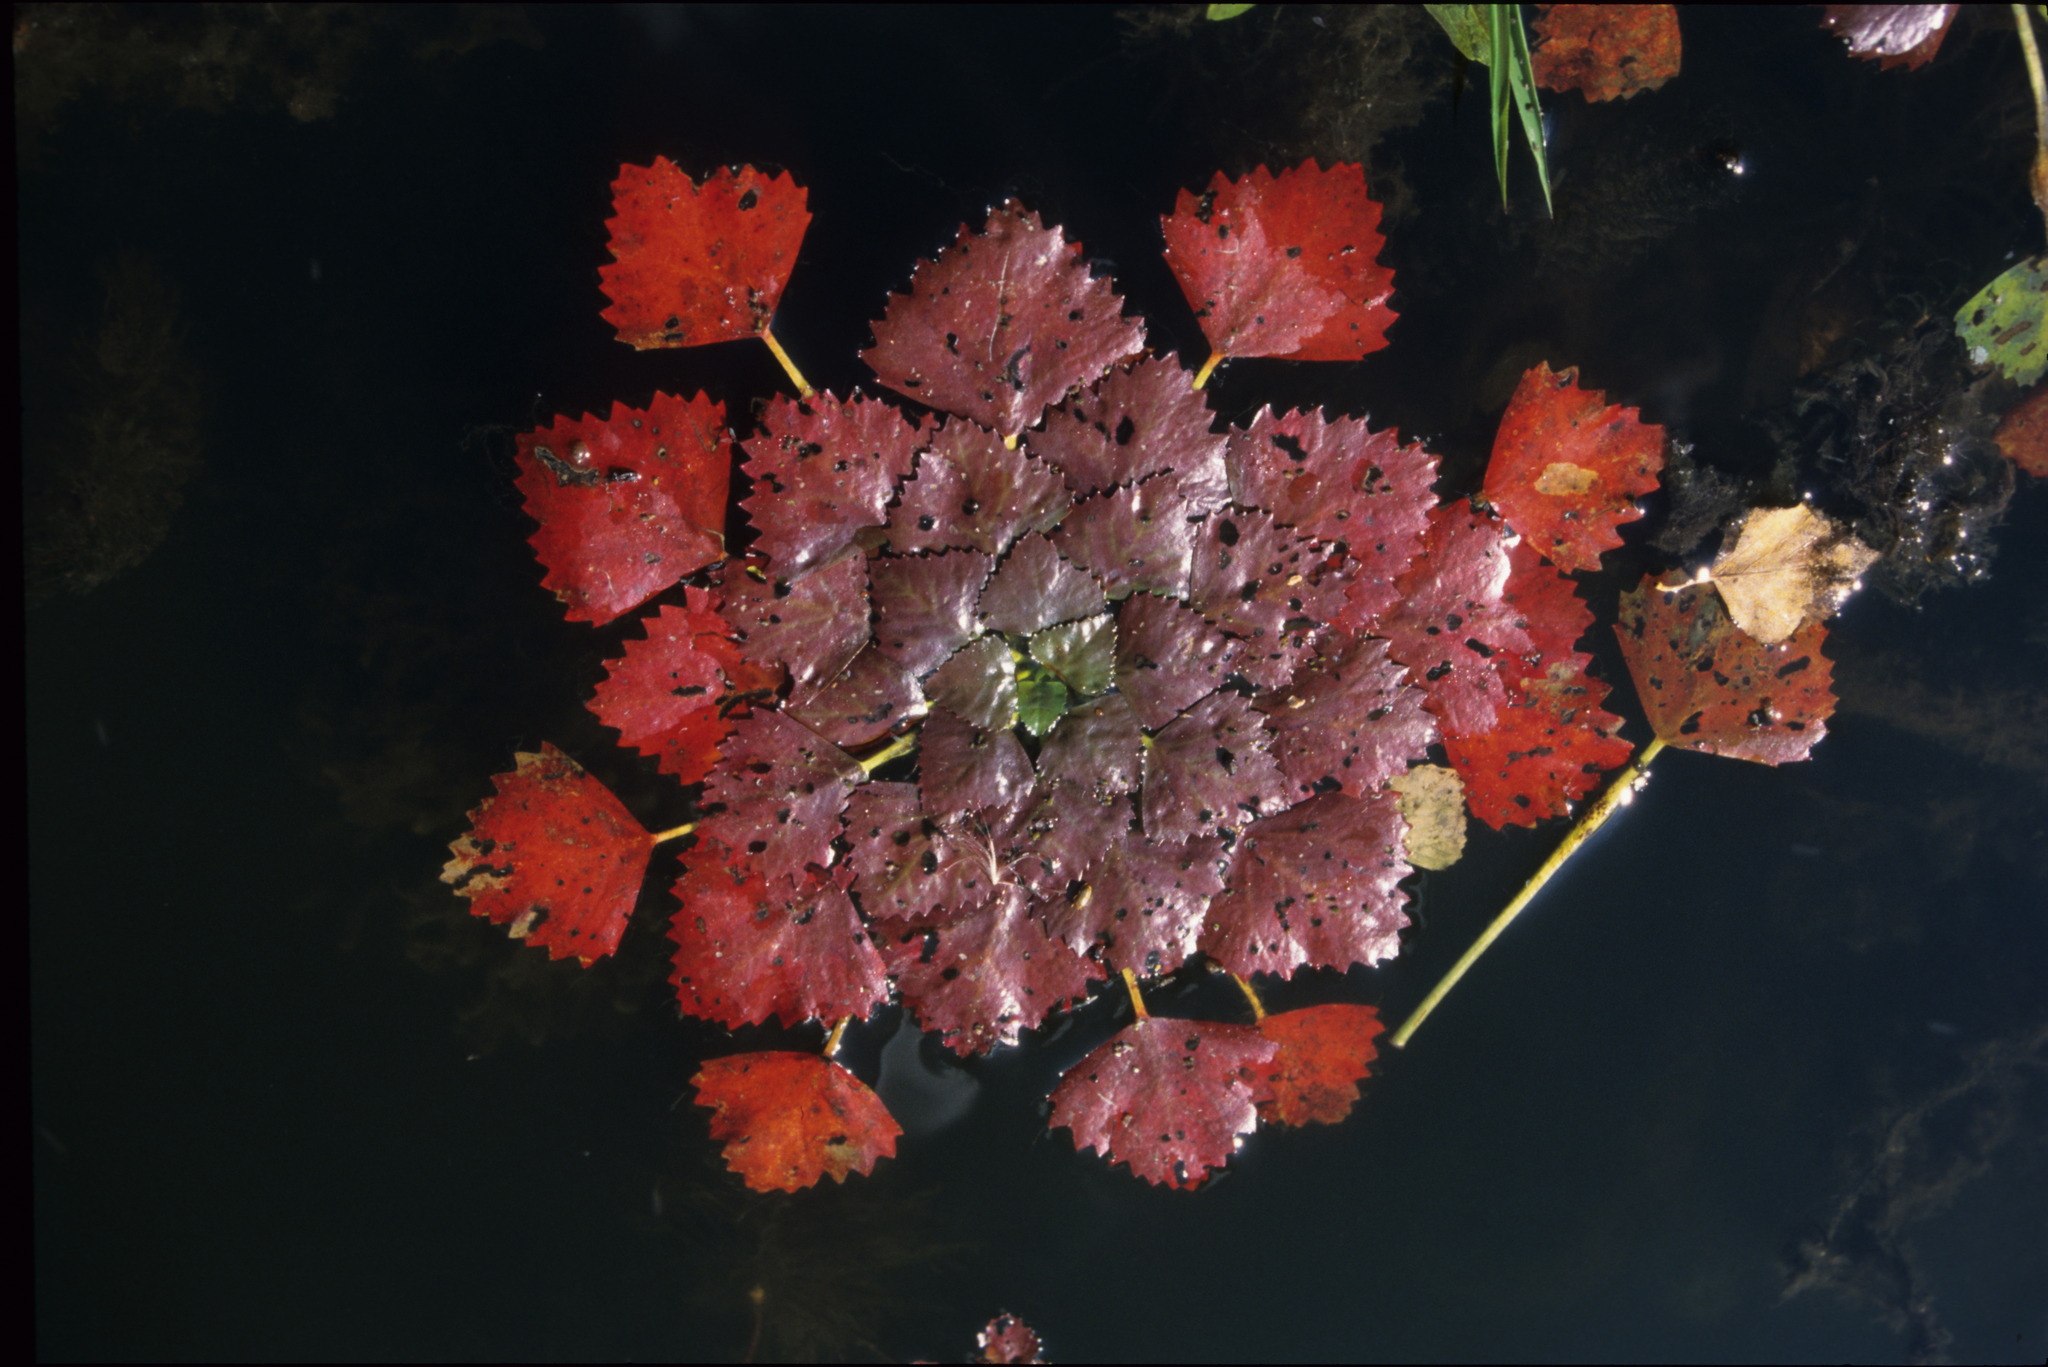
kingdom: Plantae
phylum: Tracheophyta
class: Magnoliopsida
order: Myrtales
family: Lythraceae
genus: Trapa
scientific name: Trapa natans
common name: Water chestnut
